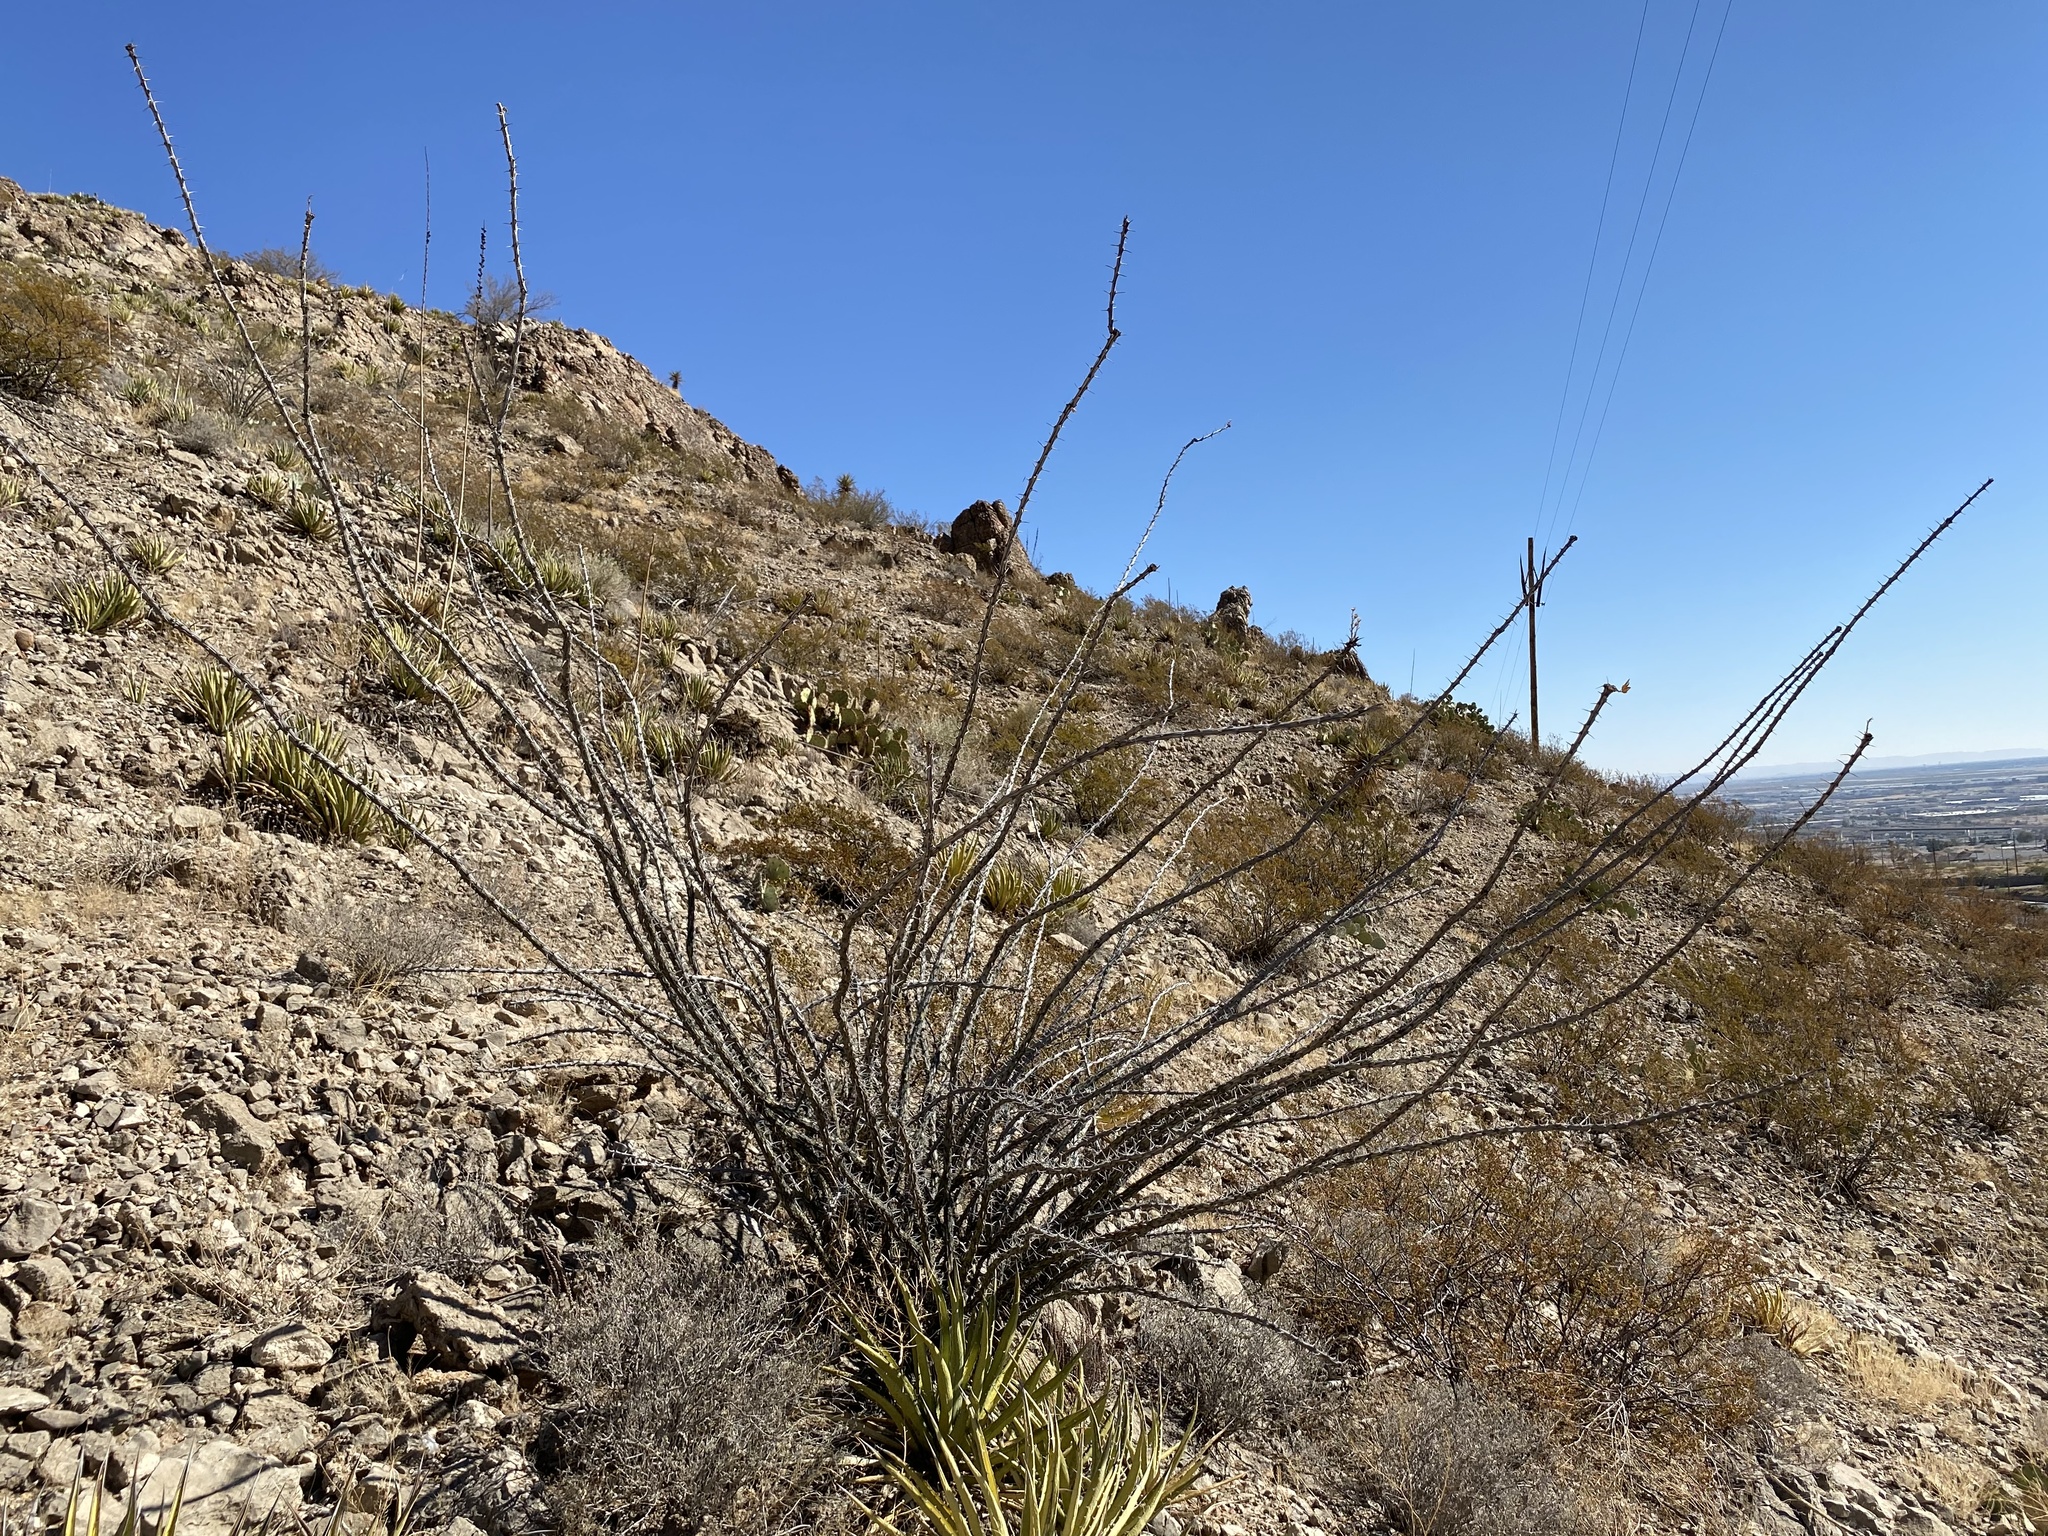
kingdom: Plantae
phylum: Tracheophyta
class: Magnoliopsida
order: Ericales
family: Fouquieriaceae
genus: Fouquieria
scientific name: Fouquieria splendens
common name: Vine-cactus
